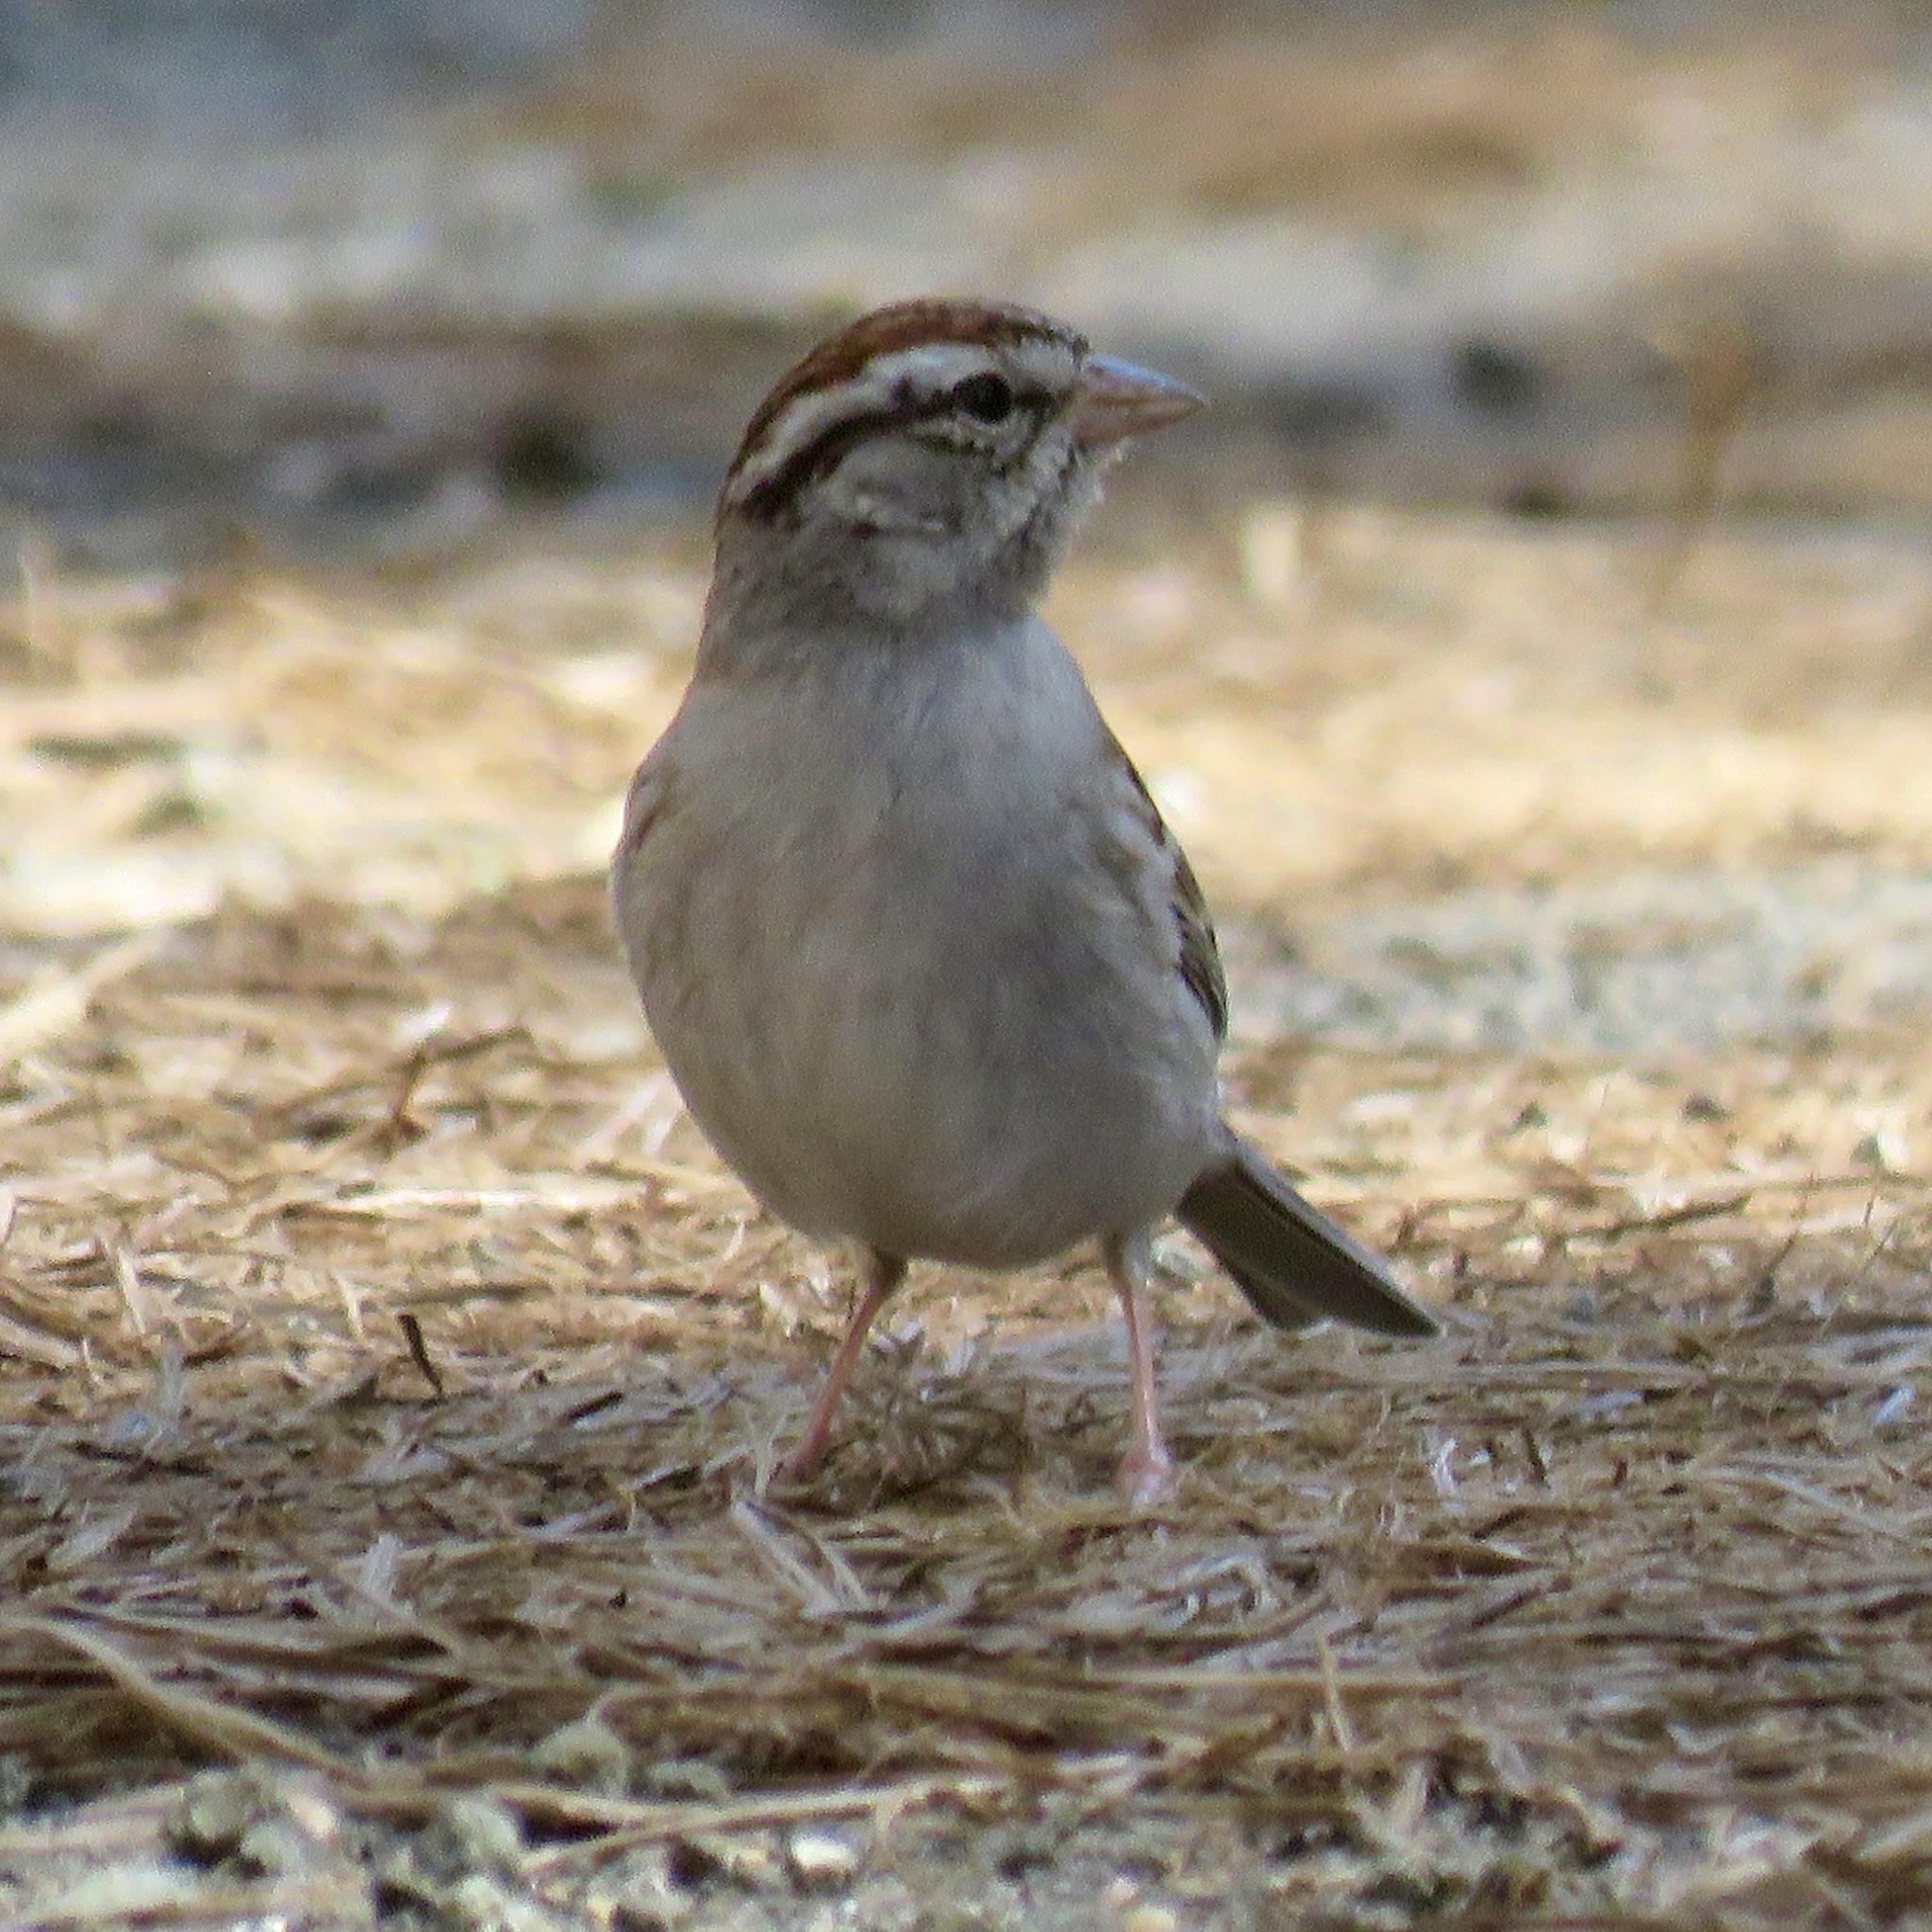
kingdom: Animalia
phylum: Chordata
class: Aves
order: Passeriformes
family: Passerellidae
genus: Spizella
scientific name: Spizella passerina
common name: Chipping sparrow
